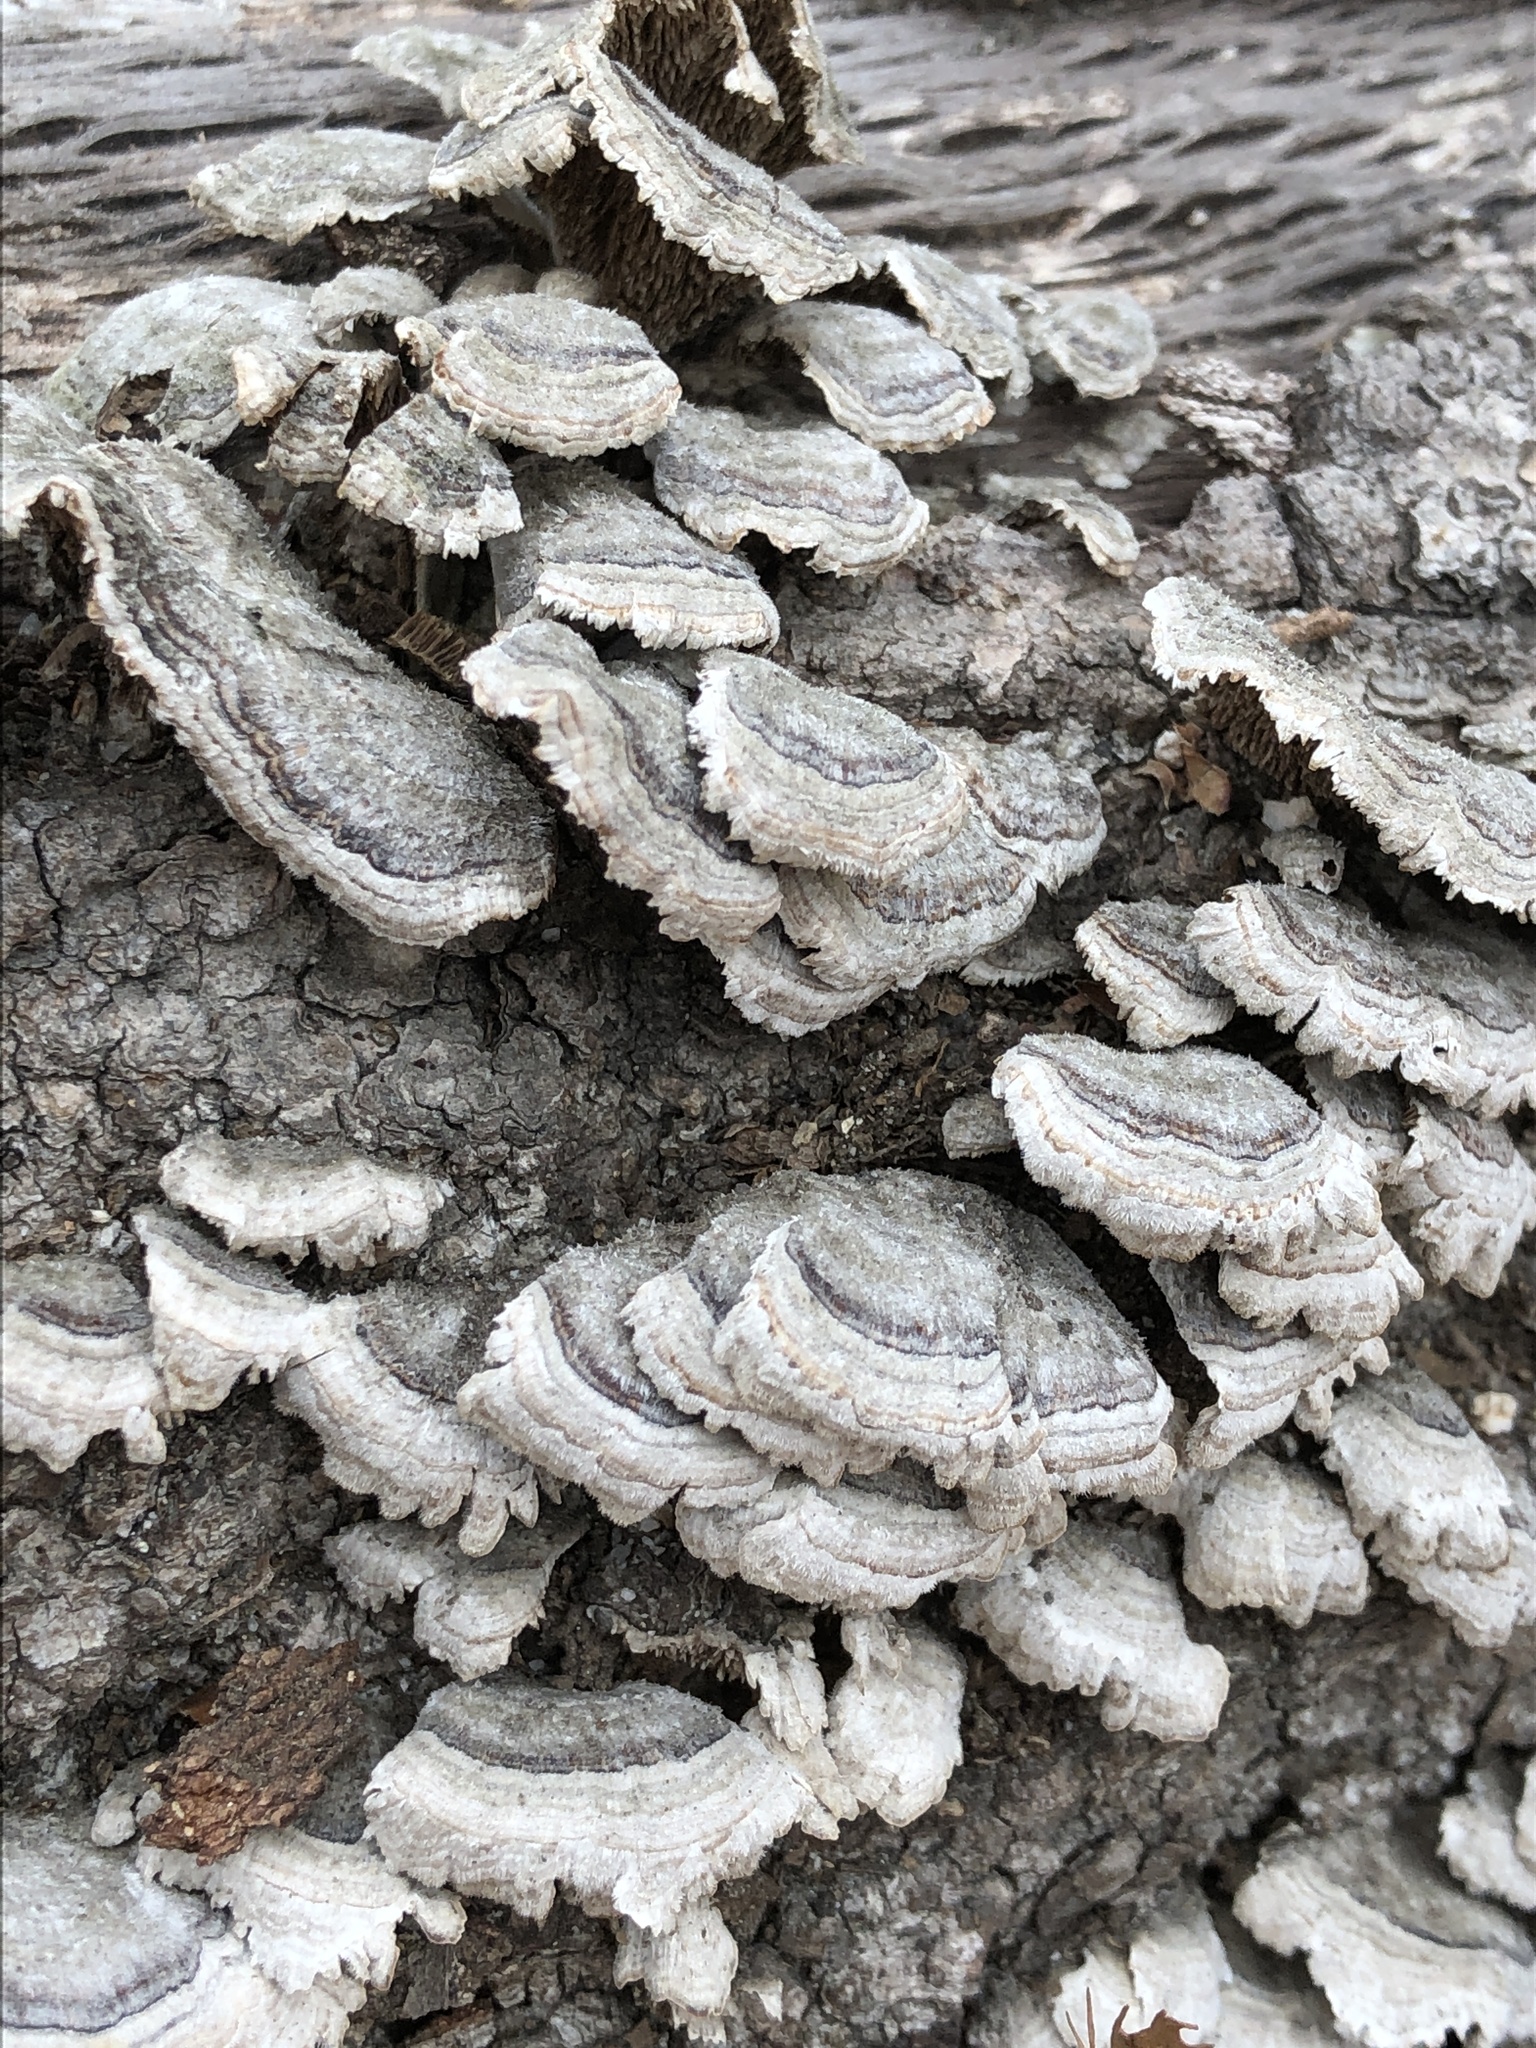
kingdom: Fungi
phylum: Basidiomycota
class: Agaricomycetes
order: Polyporales
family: Cerrenaceae
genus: Cerrena
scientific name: Cerrena unicolor
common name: Mossy maze polypore
